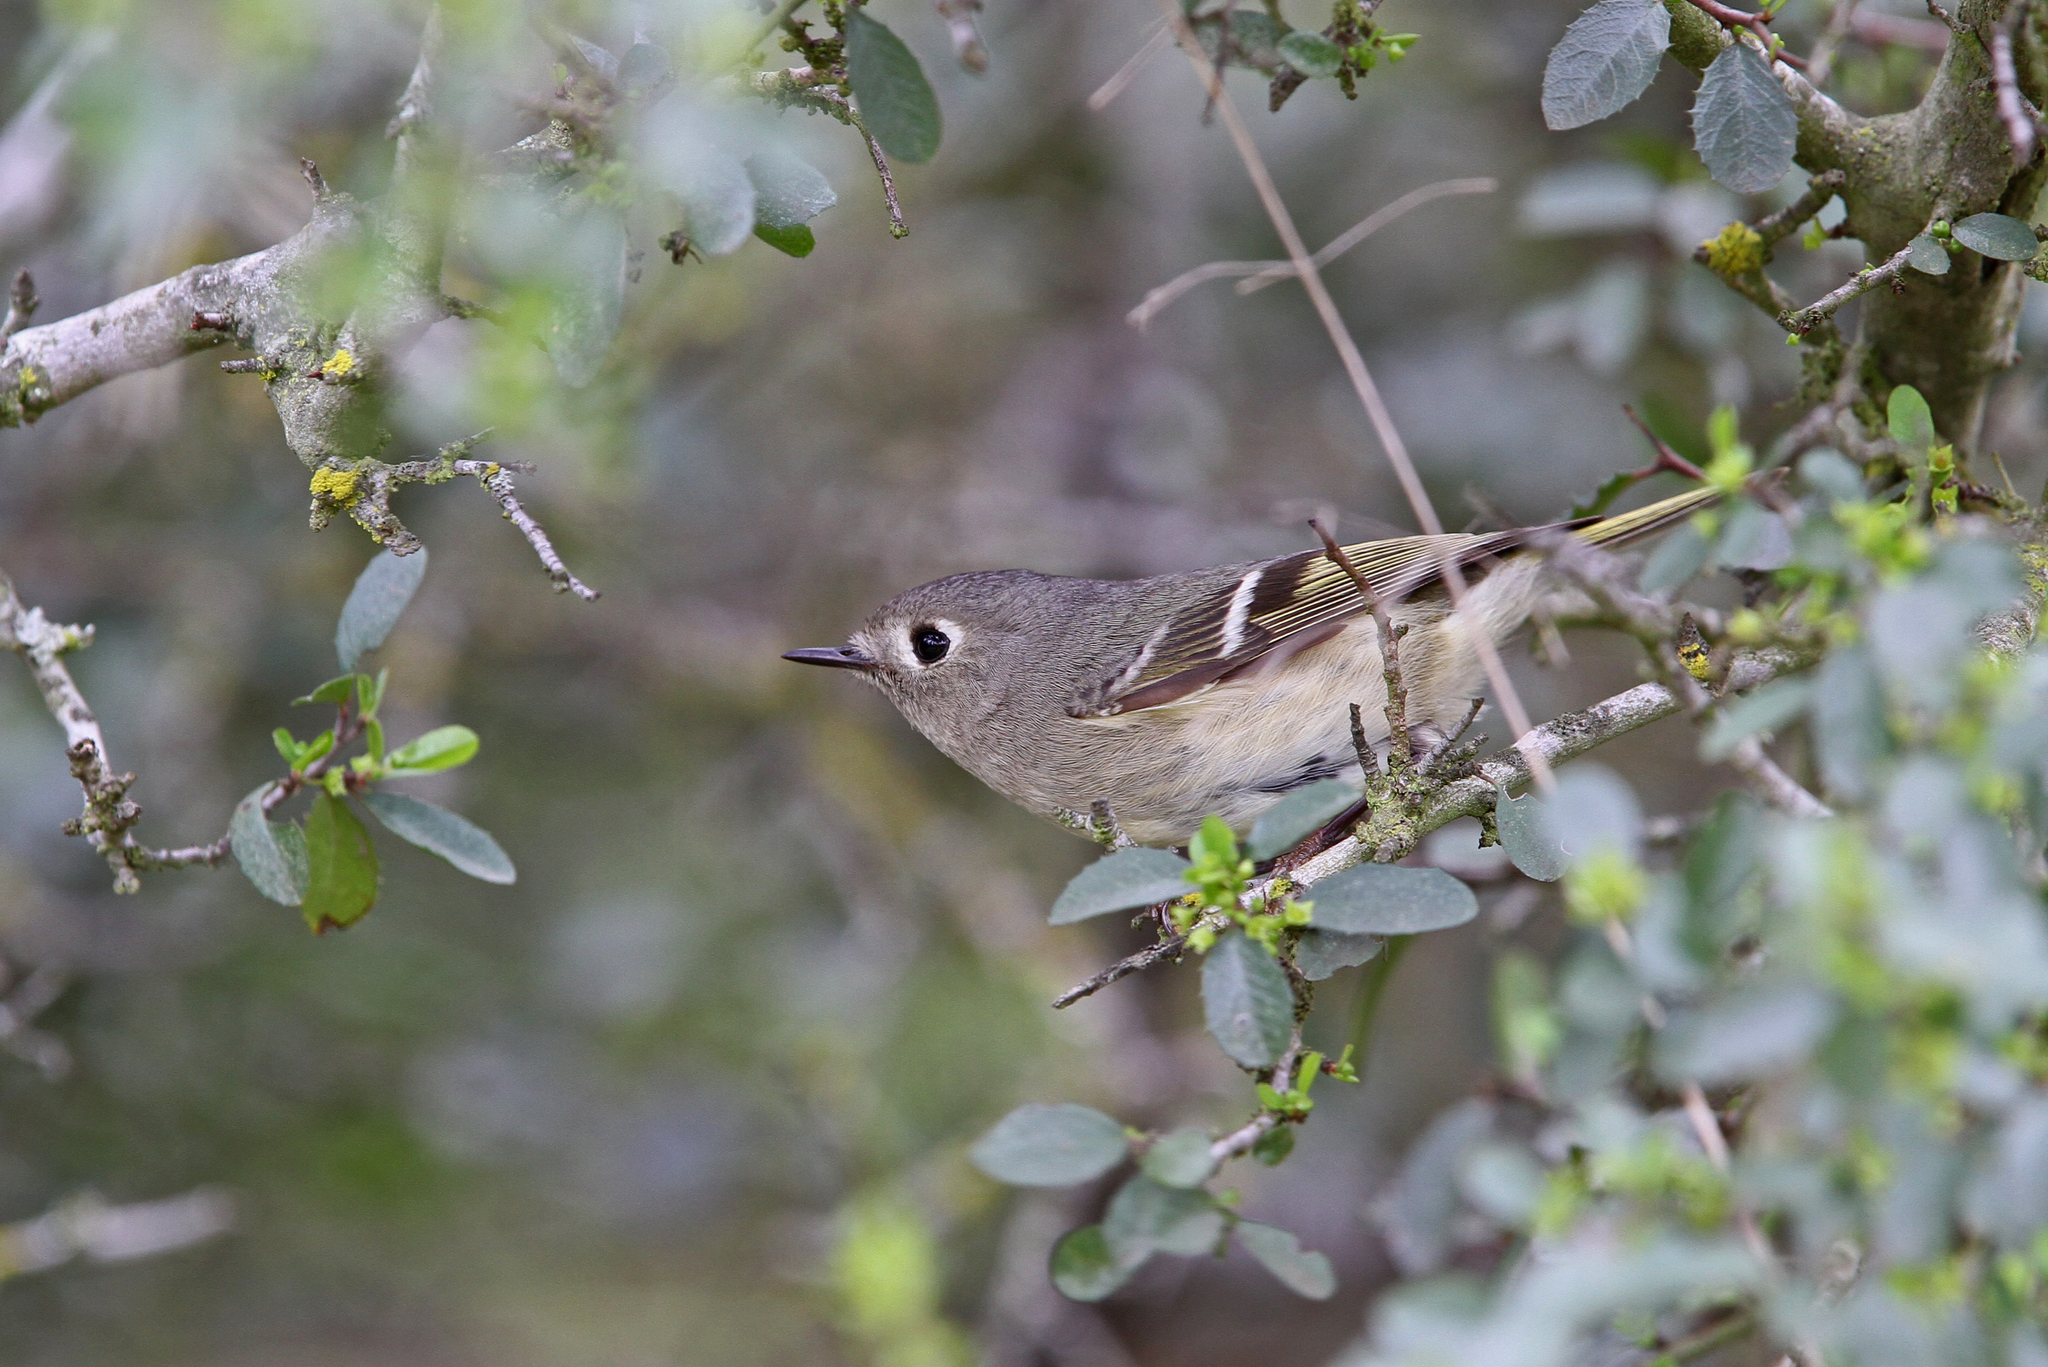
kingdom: Animalia
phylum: Chordata
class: Aves
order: Passeriformes
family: Regulidae
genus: Regulus
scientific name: Regulus calendula
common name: Ruby-crowned kinglet
